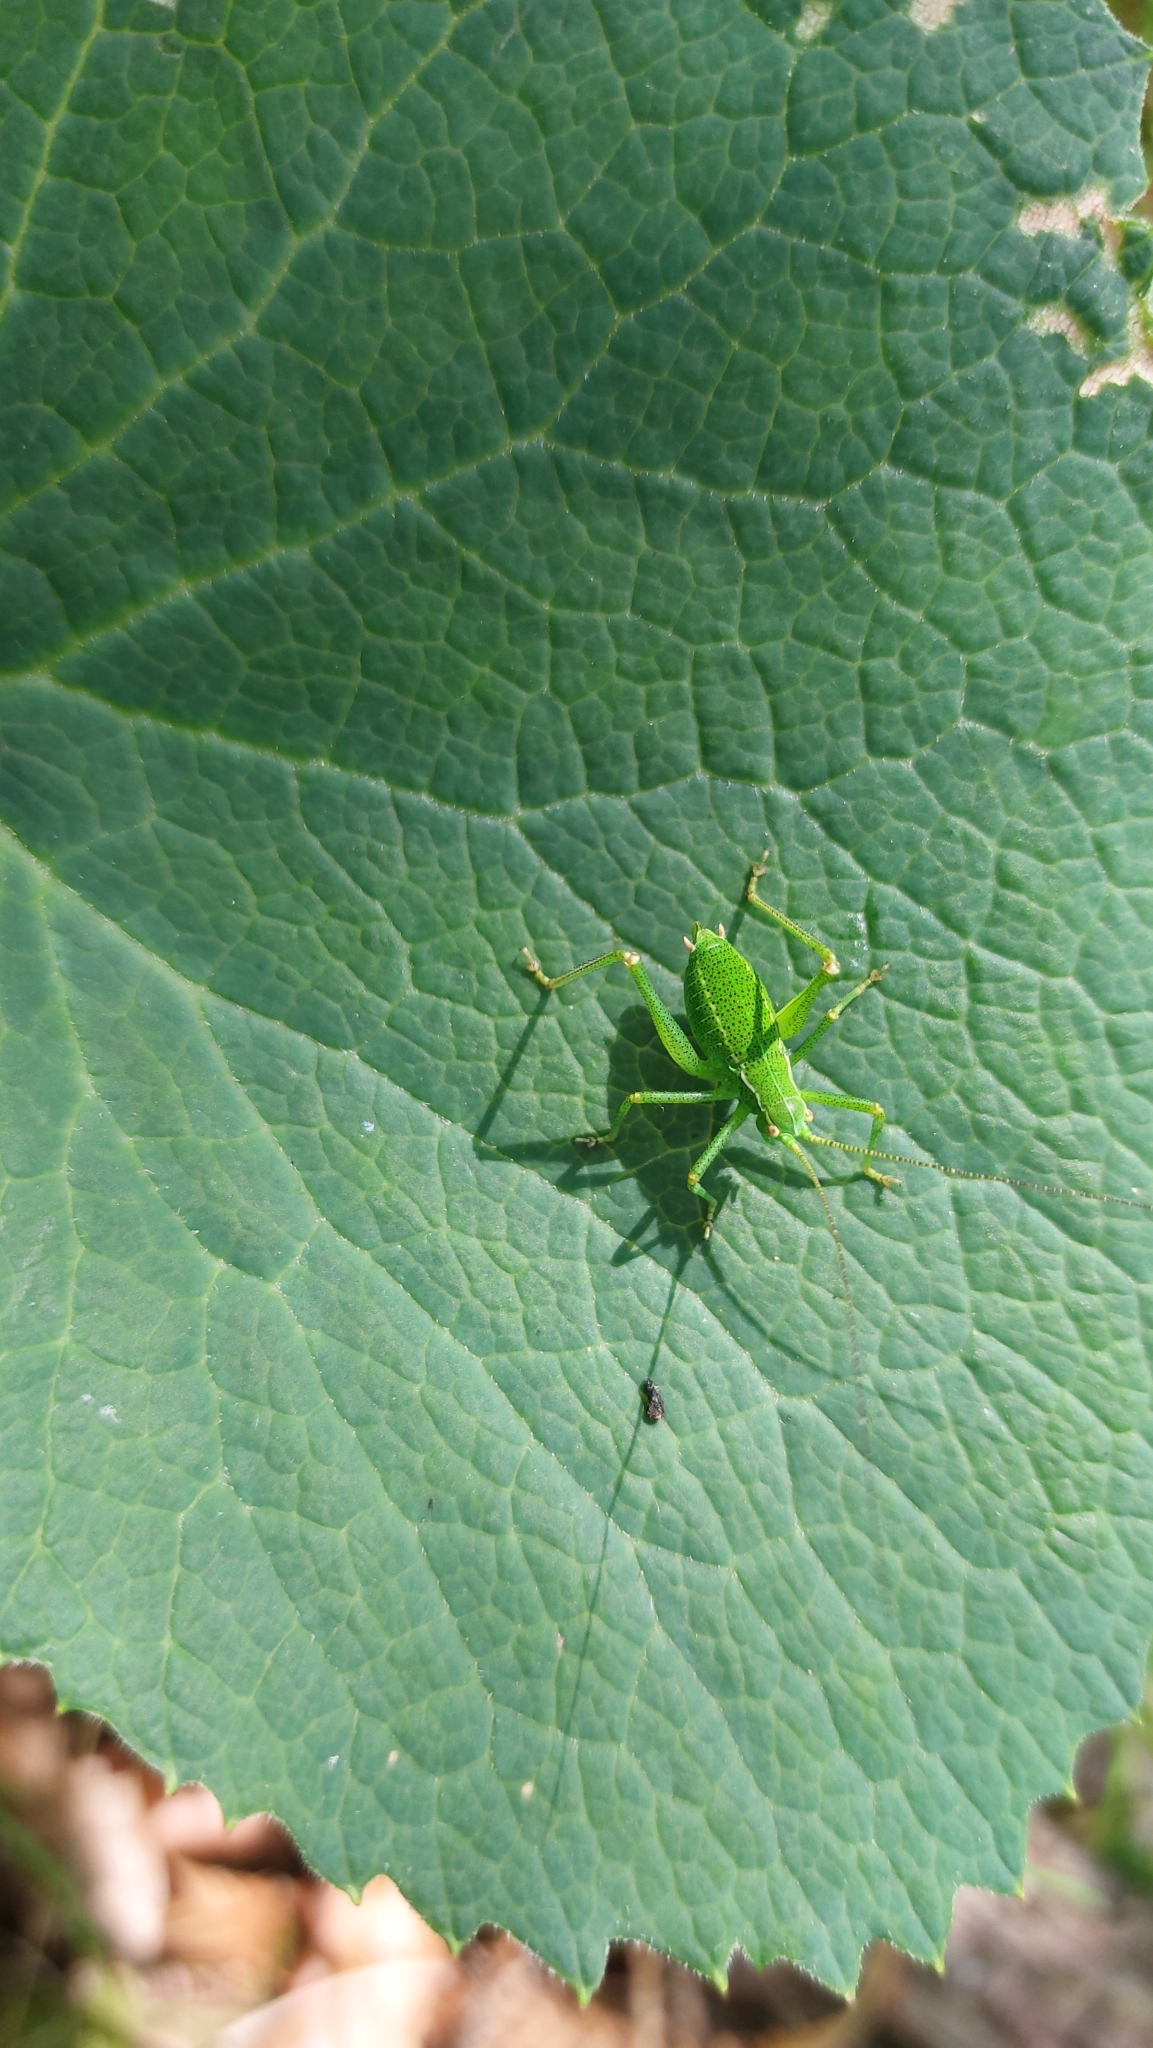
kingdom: Animalia
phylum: Arthropoda
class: Insecta
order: Orthoptera
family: Tettigoniidae
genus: Barbitistes
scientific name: Barbitistes serricauda
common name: Saw-tailed bush-cricket
